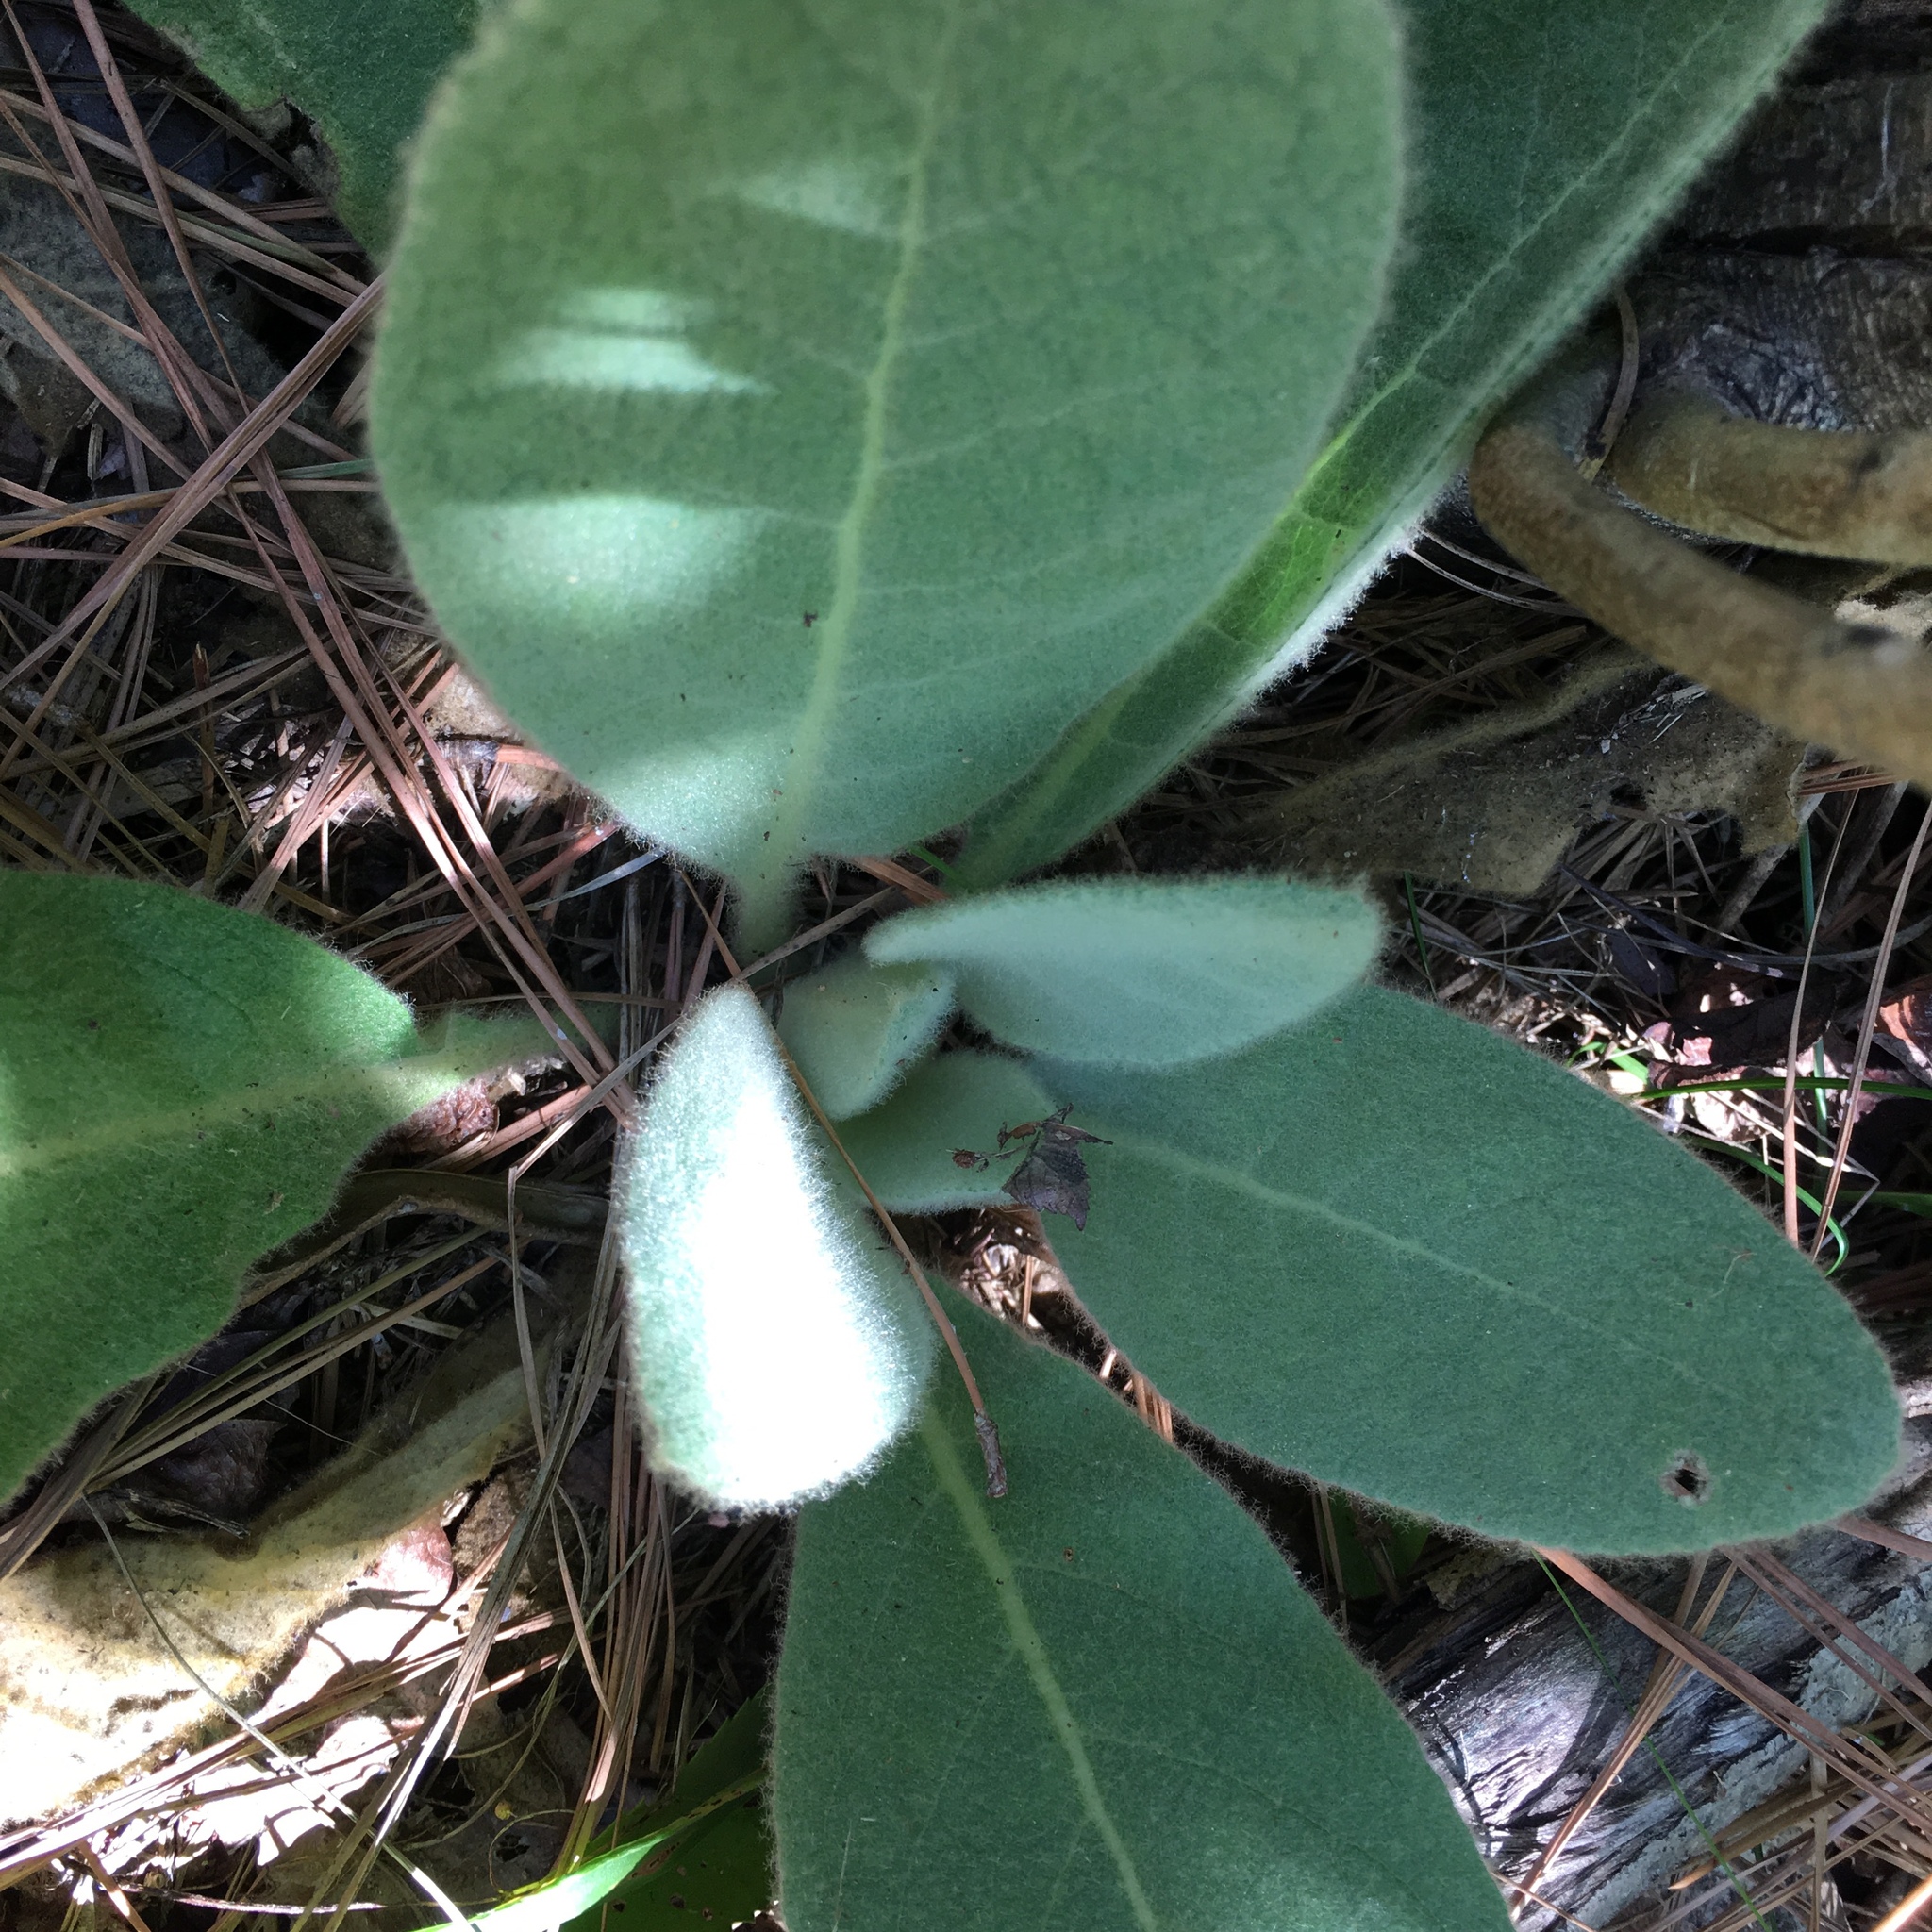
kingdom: Plantae
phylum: Tracheophyta
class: Magnoliopsida
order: Lamiales
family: Scrophulariaceae
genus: Verbascum
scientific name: Verbascum thapsus
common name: Common mullein
